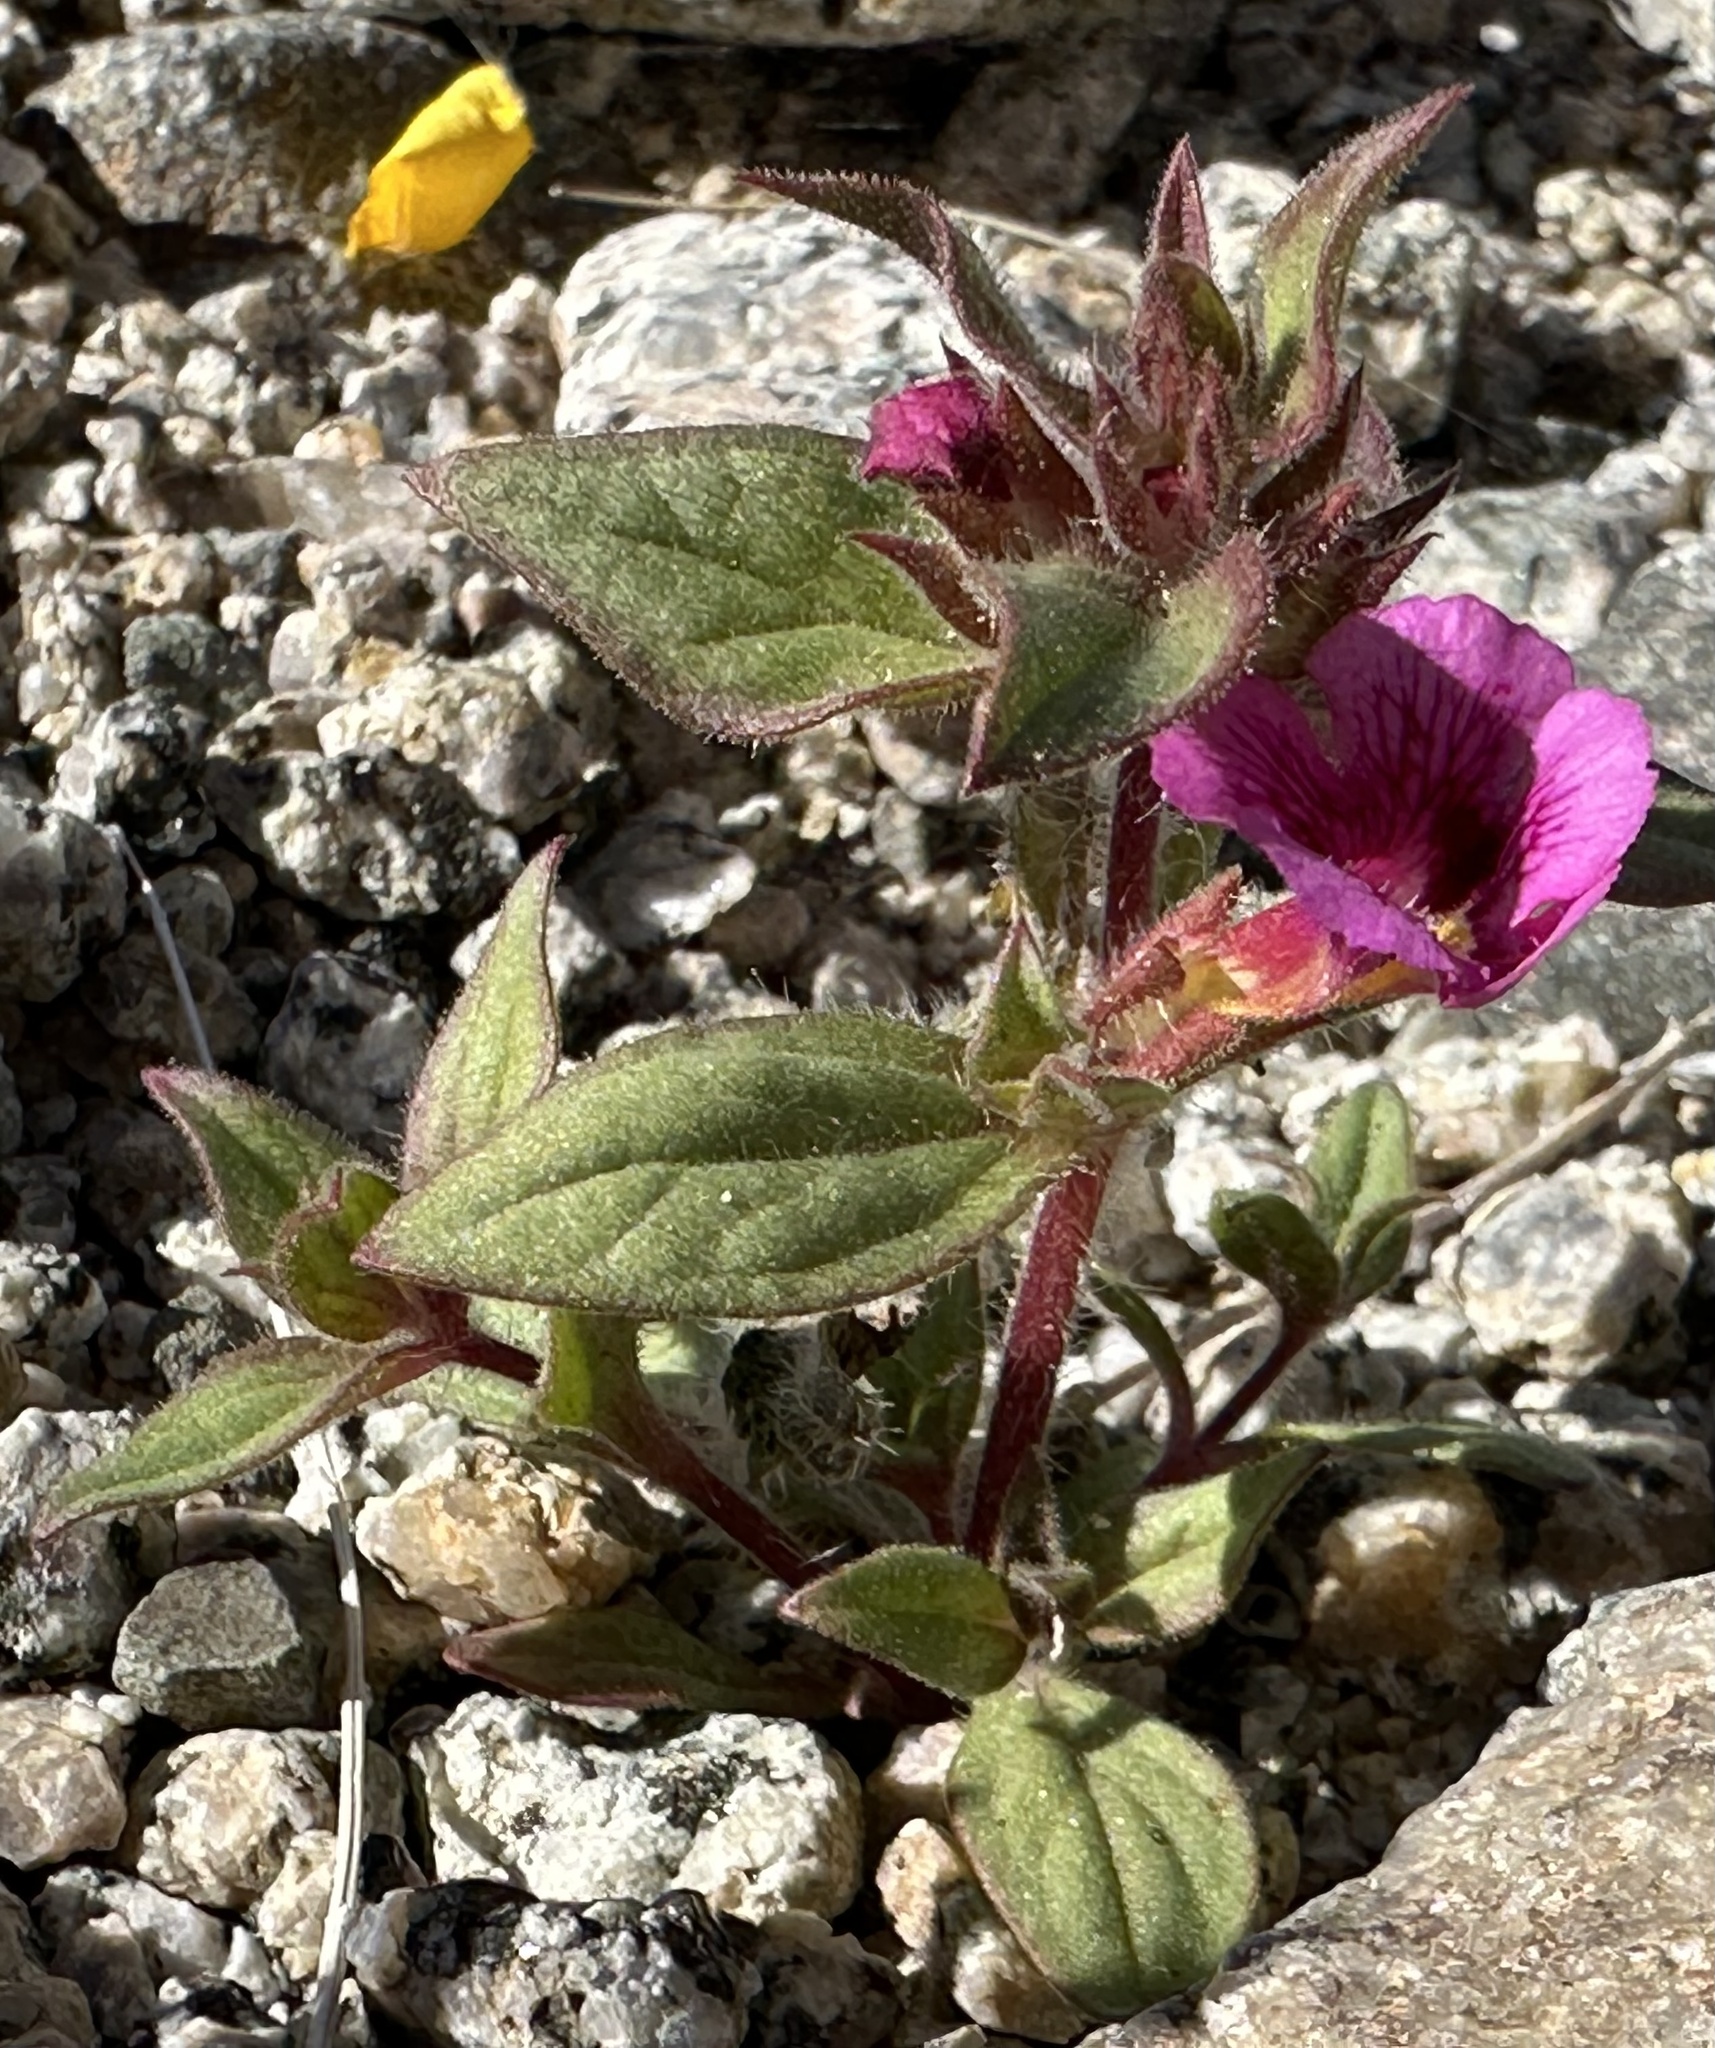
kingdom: Plantae
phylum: Tracheophyta
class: Magnoliopsida
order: Lamiales
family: Phrymaceae
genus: Diplacus
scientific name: Diplacus bigelovii
